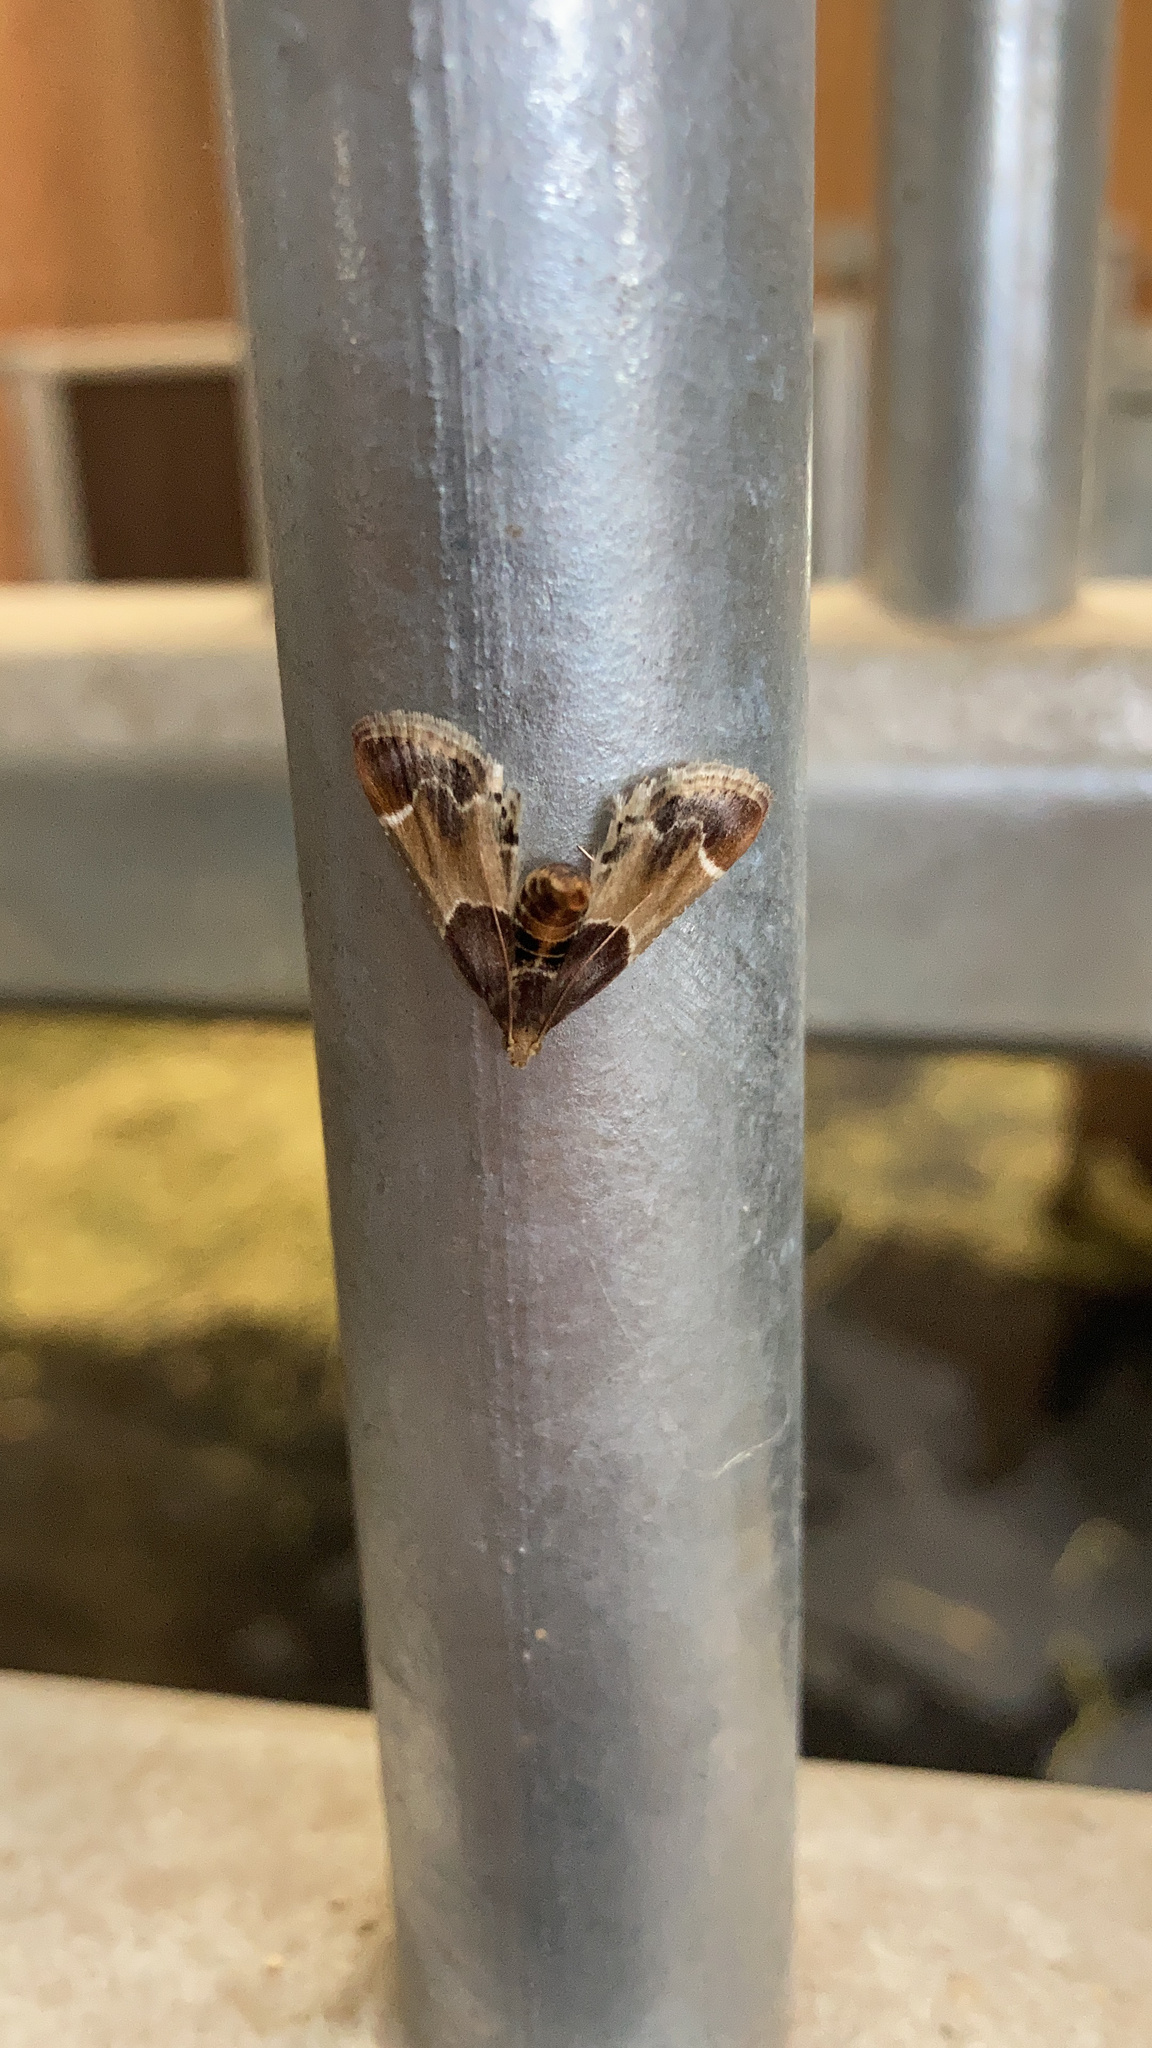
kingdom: Animalia
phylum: Arthropoda
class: Insecta
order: Lepidoptera
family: Pyralidae
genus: Pyralis
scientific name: Pyralis farinalis
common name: Meal moth
